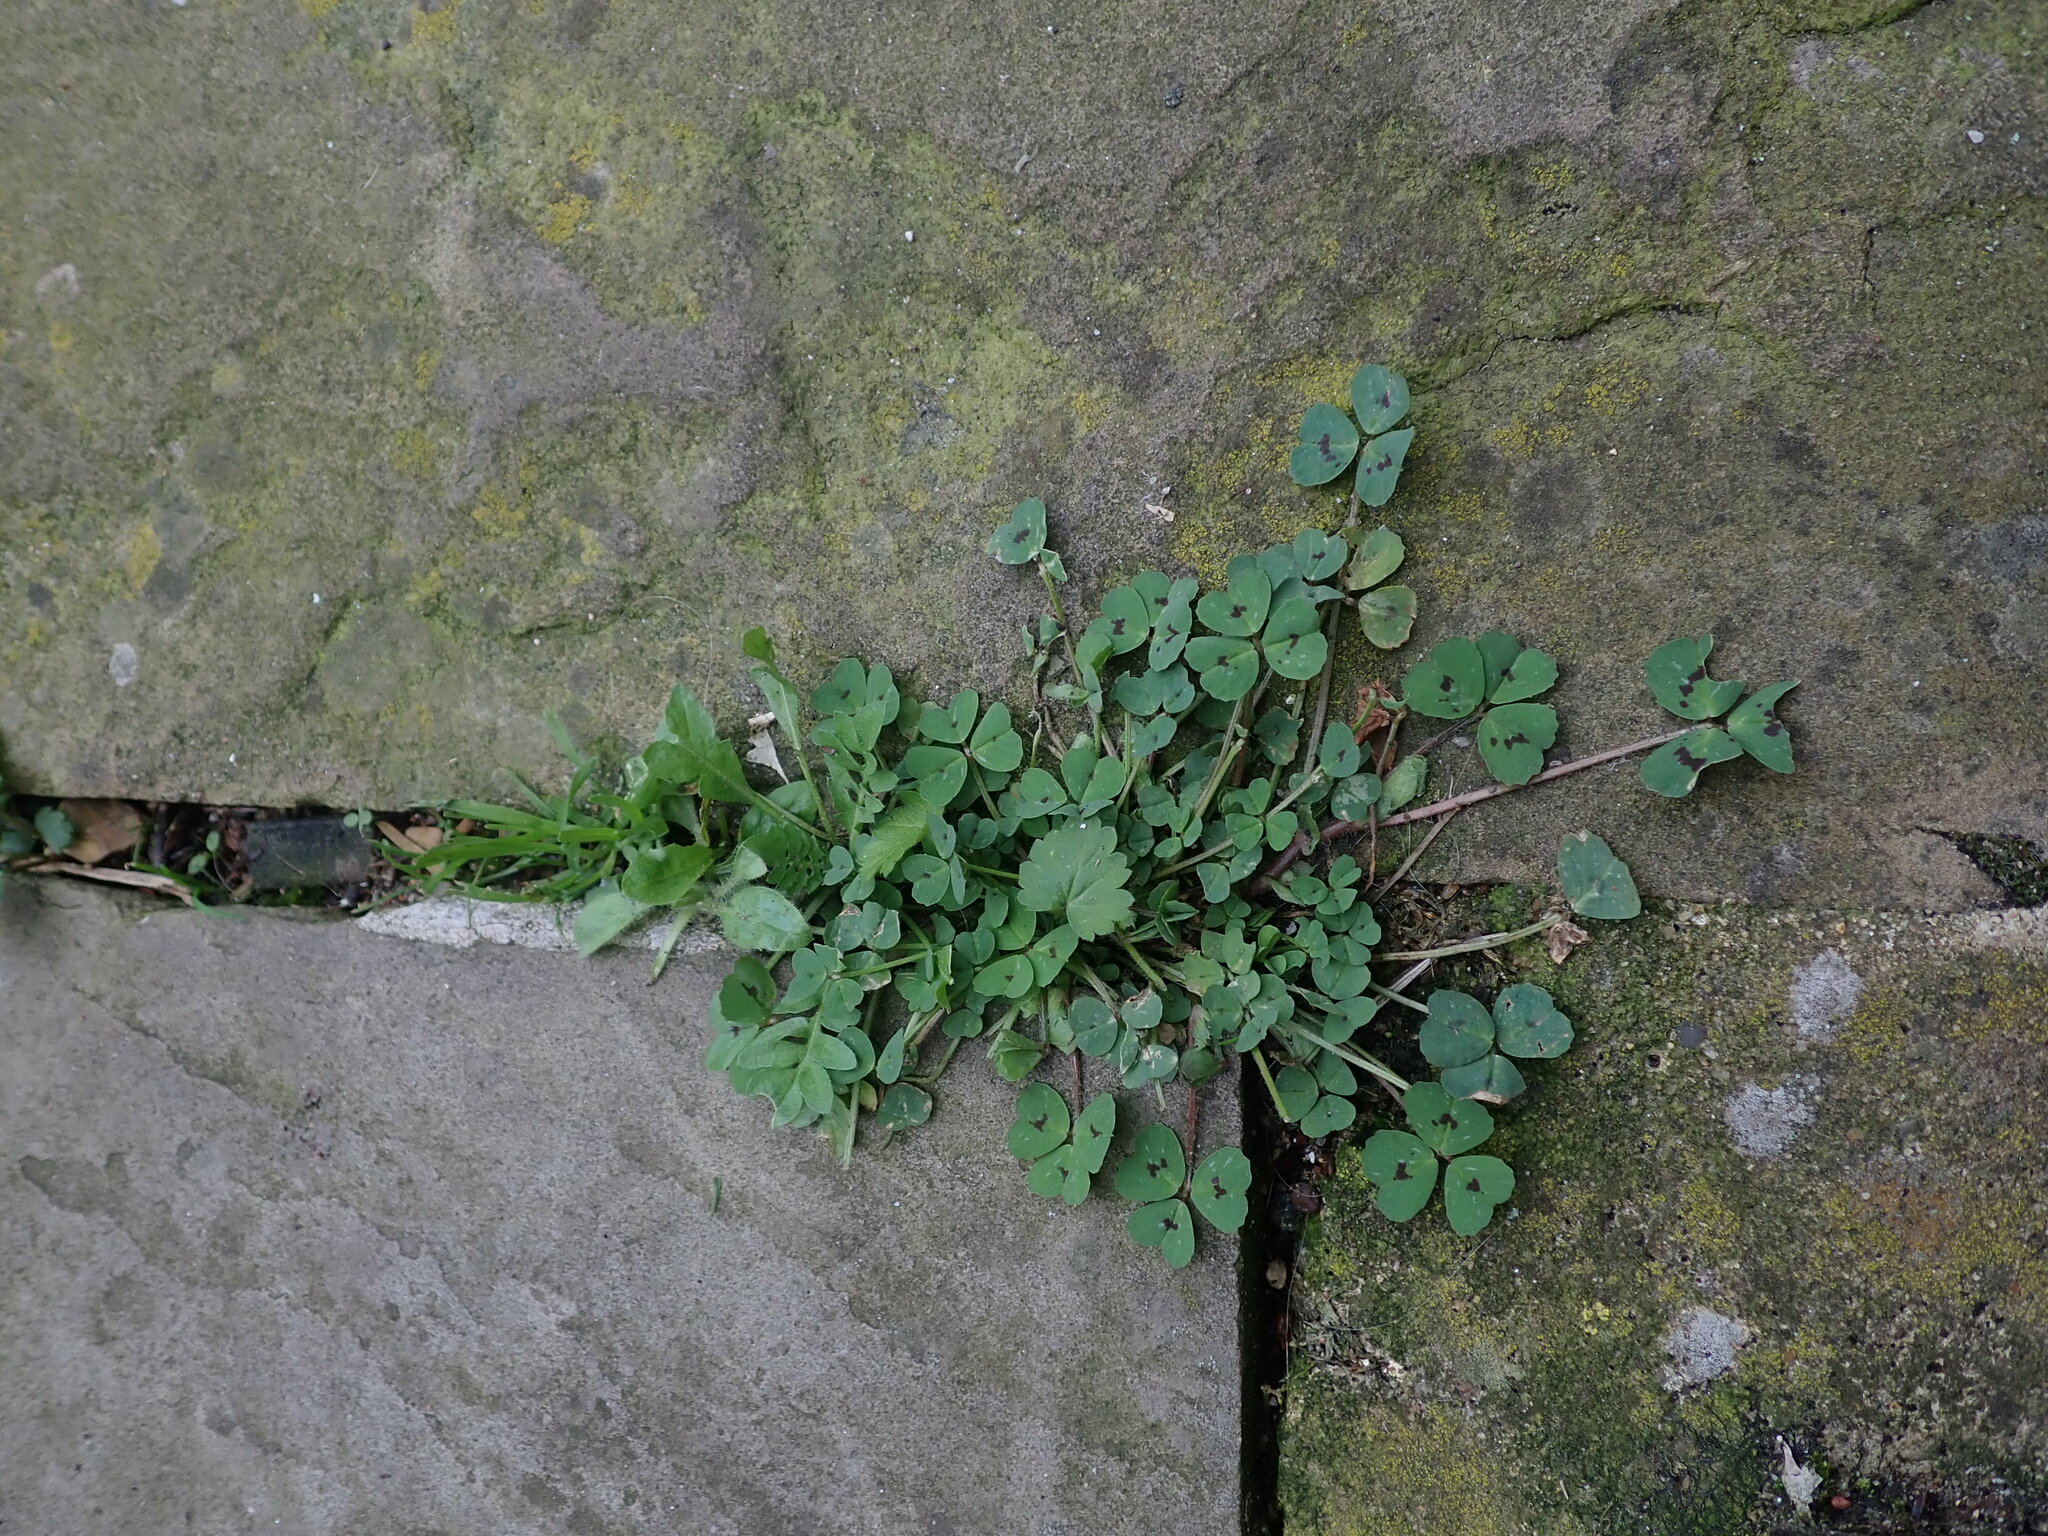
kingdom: Plantae
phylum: Tracheophyta
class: Magnoliopsida
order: Fabales
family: Fabaceae
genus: Medicago
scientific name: Medicago arabica
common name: Spotted medick
